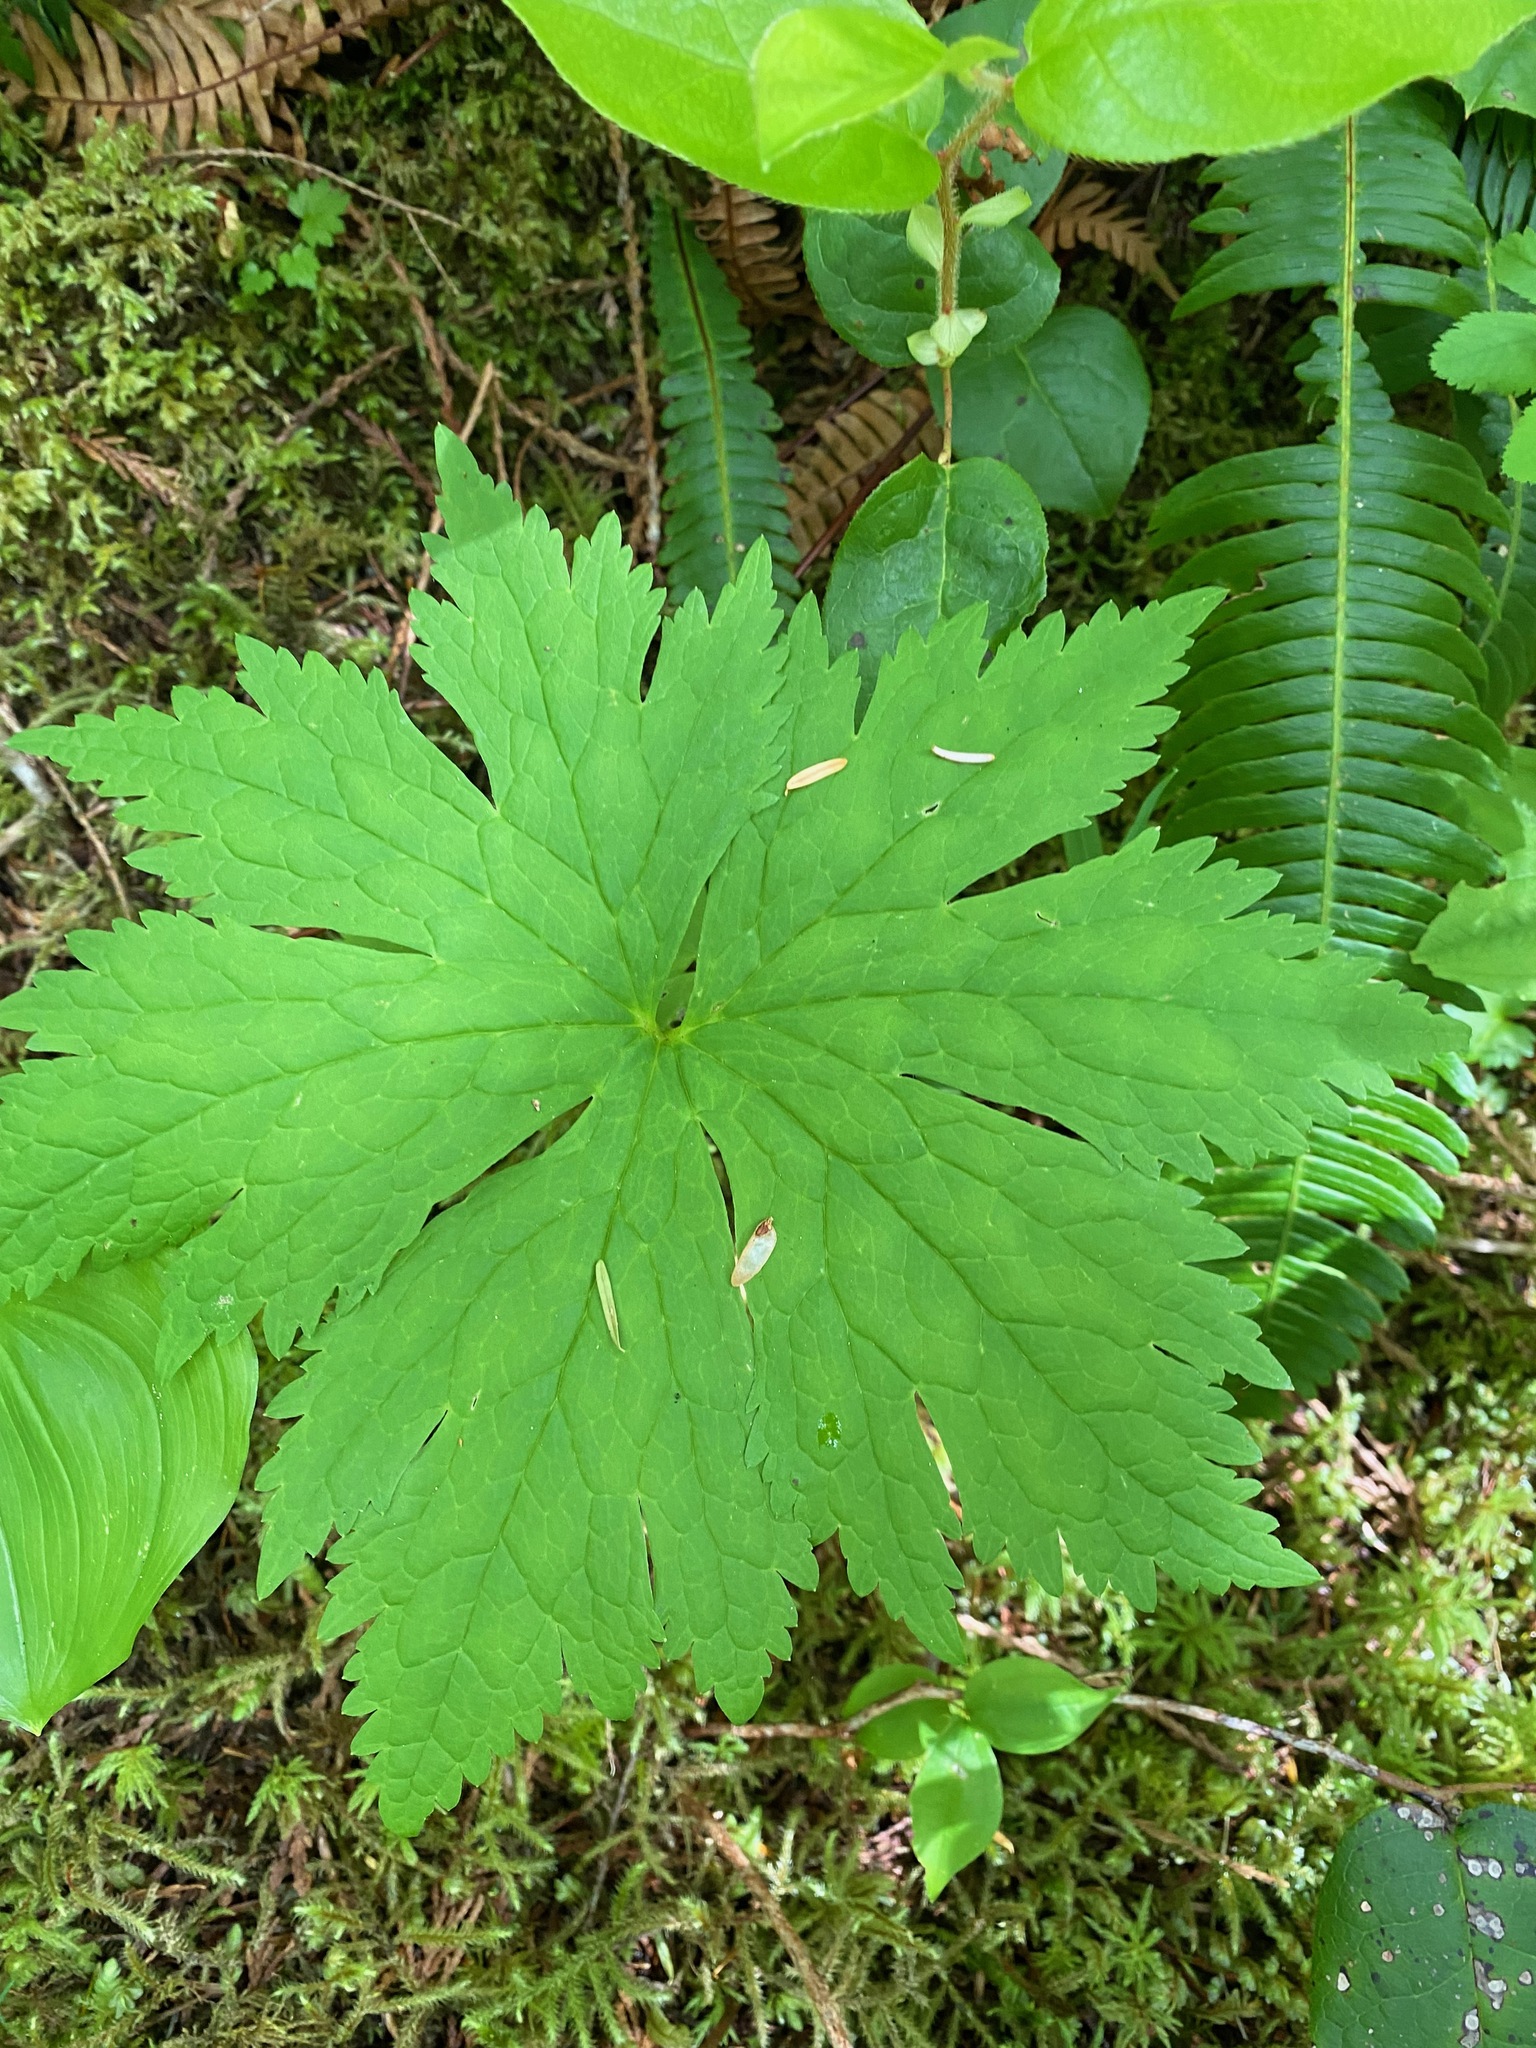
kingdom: Plantae
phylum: Tracheophyta
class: Magnoliopsida
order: Ranunculales
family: Ranunculaceae
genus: Trautvetteria
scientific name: Trautvetteria carolinensis
